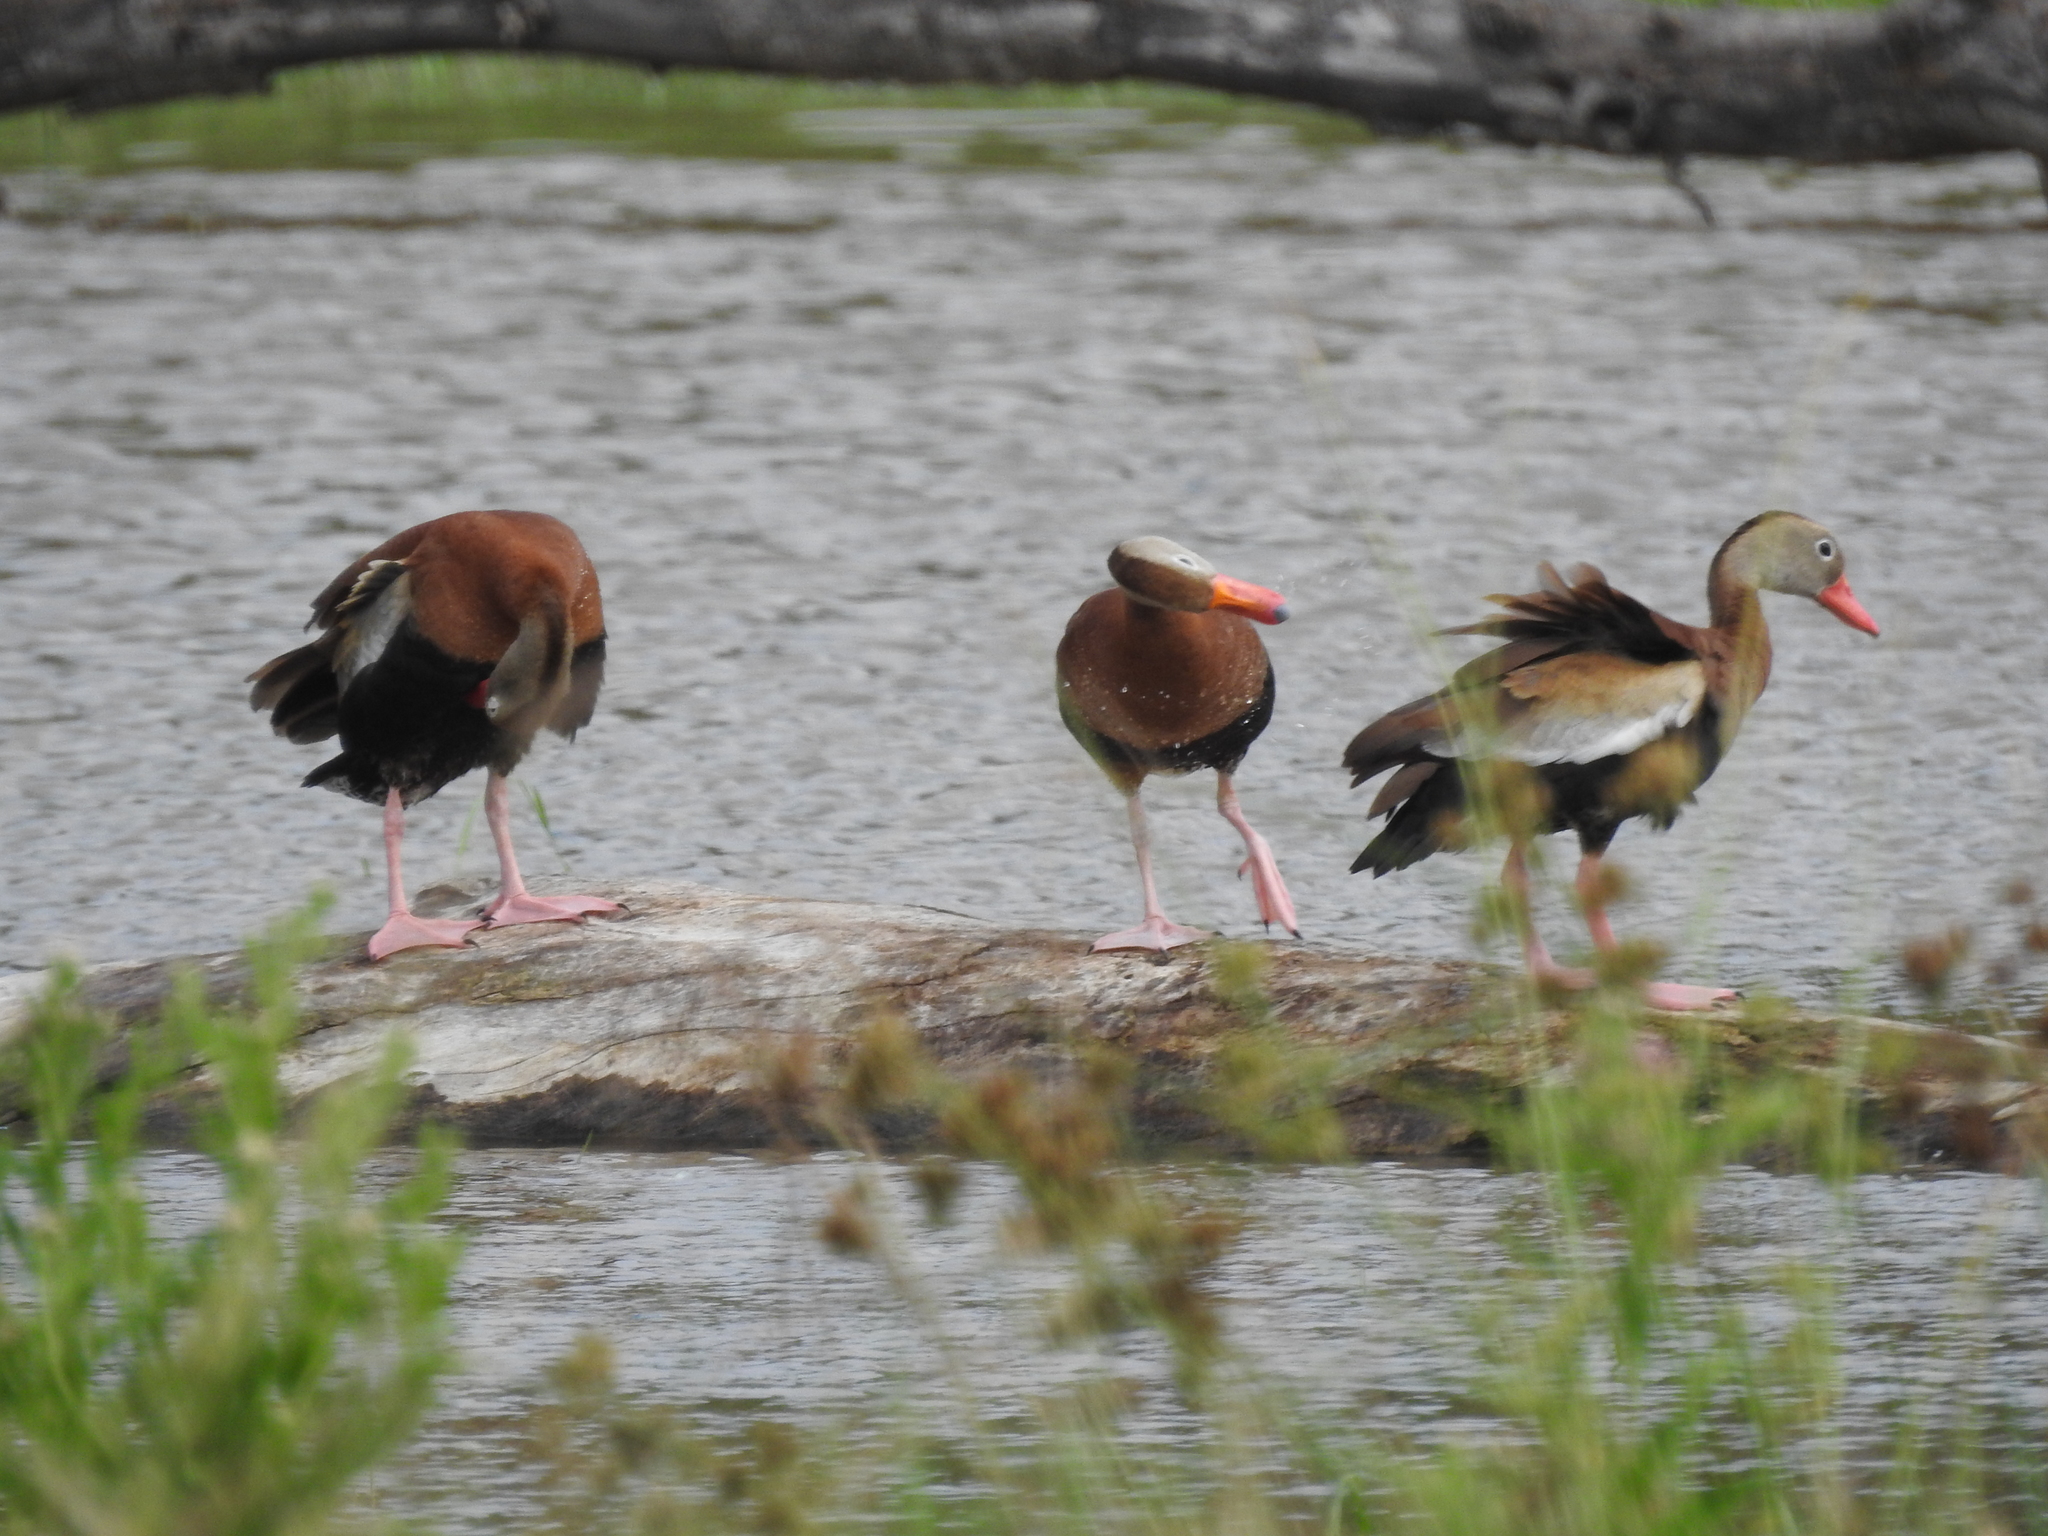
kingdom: Animalia
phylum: Chordata
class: Aves
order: Anseriformes
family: Anatidae
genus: Dendrocygna
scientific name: Dendrocygna autumnalis
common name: Black-bellied whistling duck
